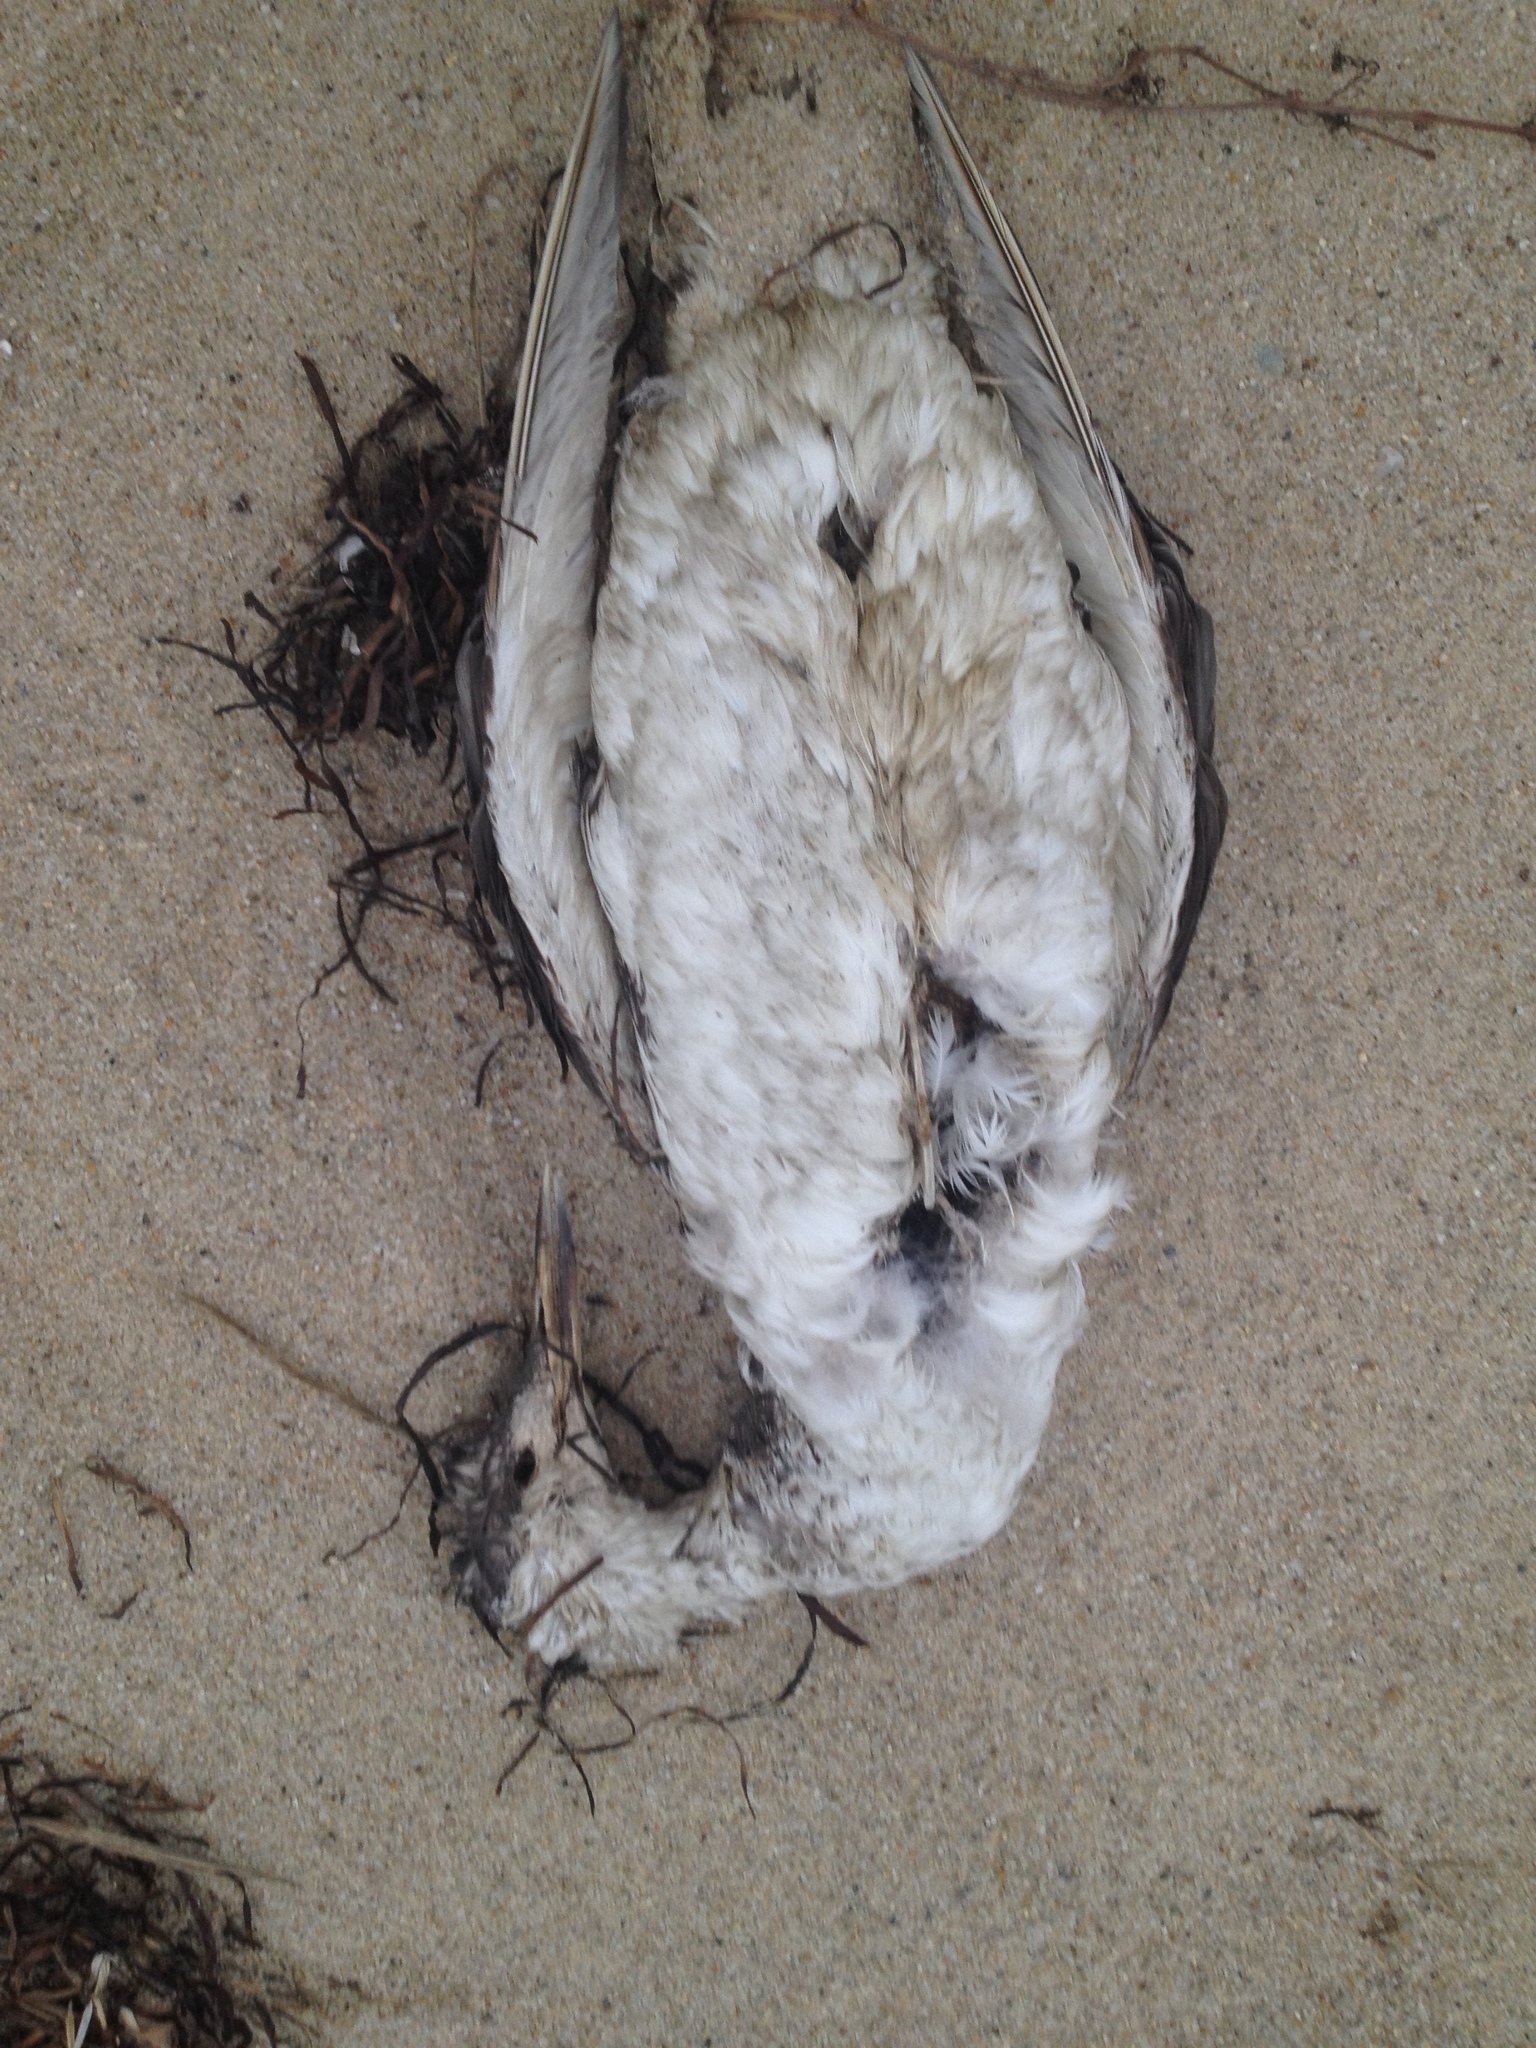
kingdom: Animalia
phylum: Chordata
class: Aves
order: Gaviiformes
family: Gaviidae
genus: Gavia
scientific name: Gavia stellata
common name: Red-throated loon
